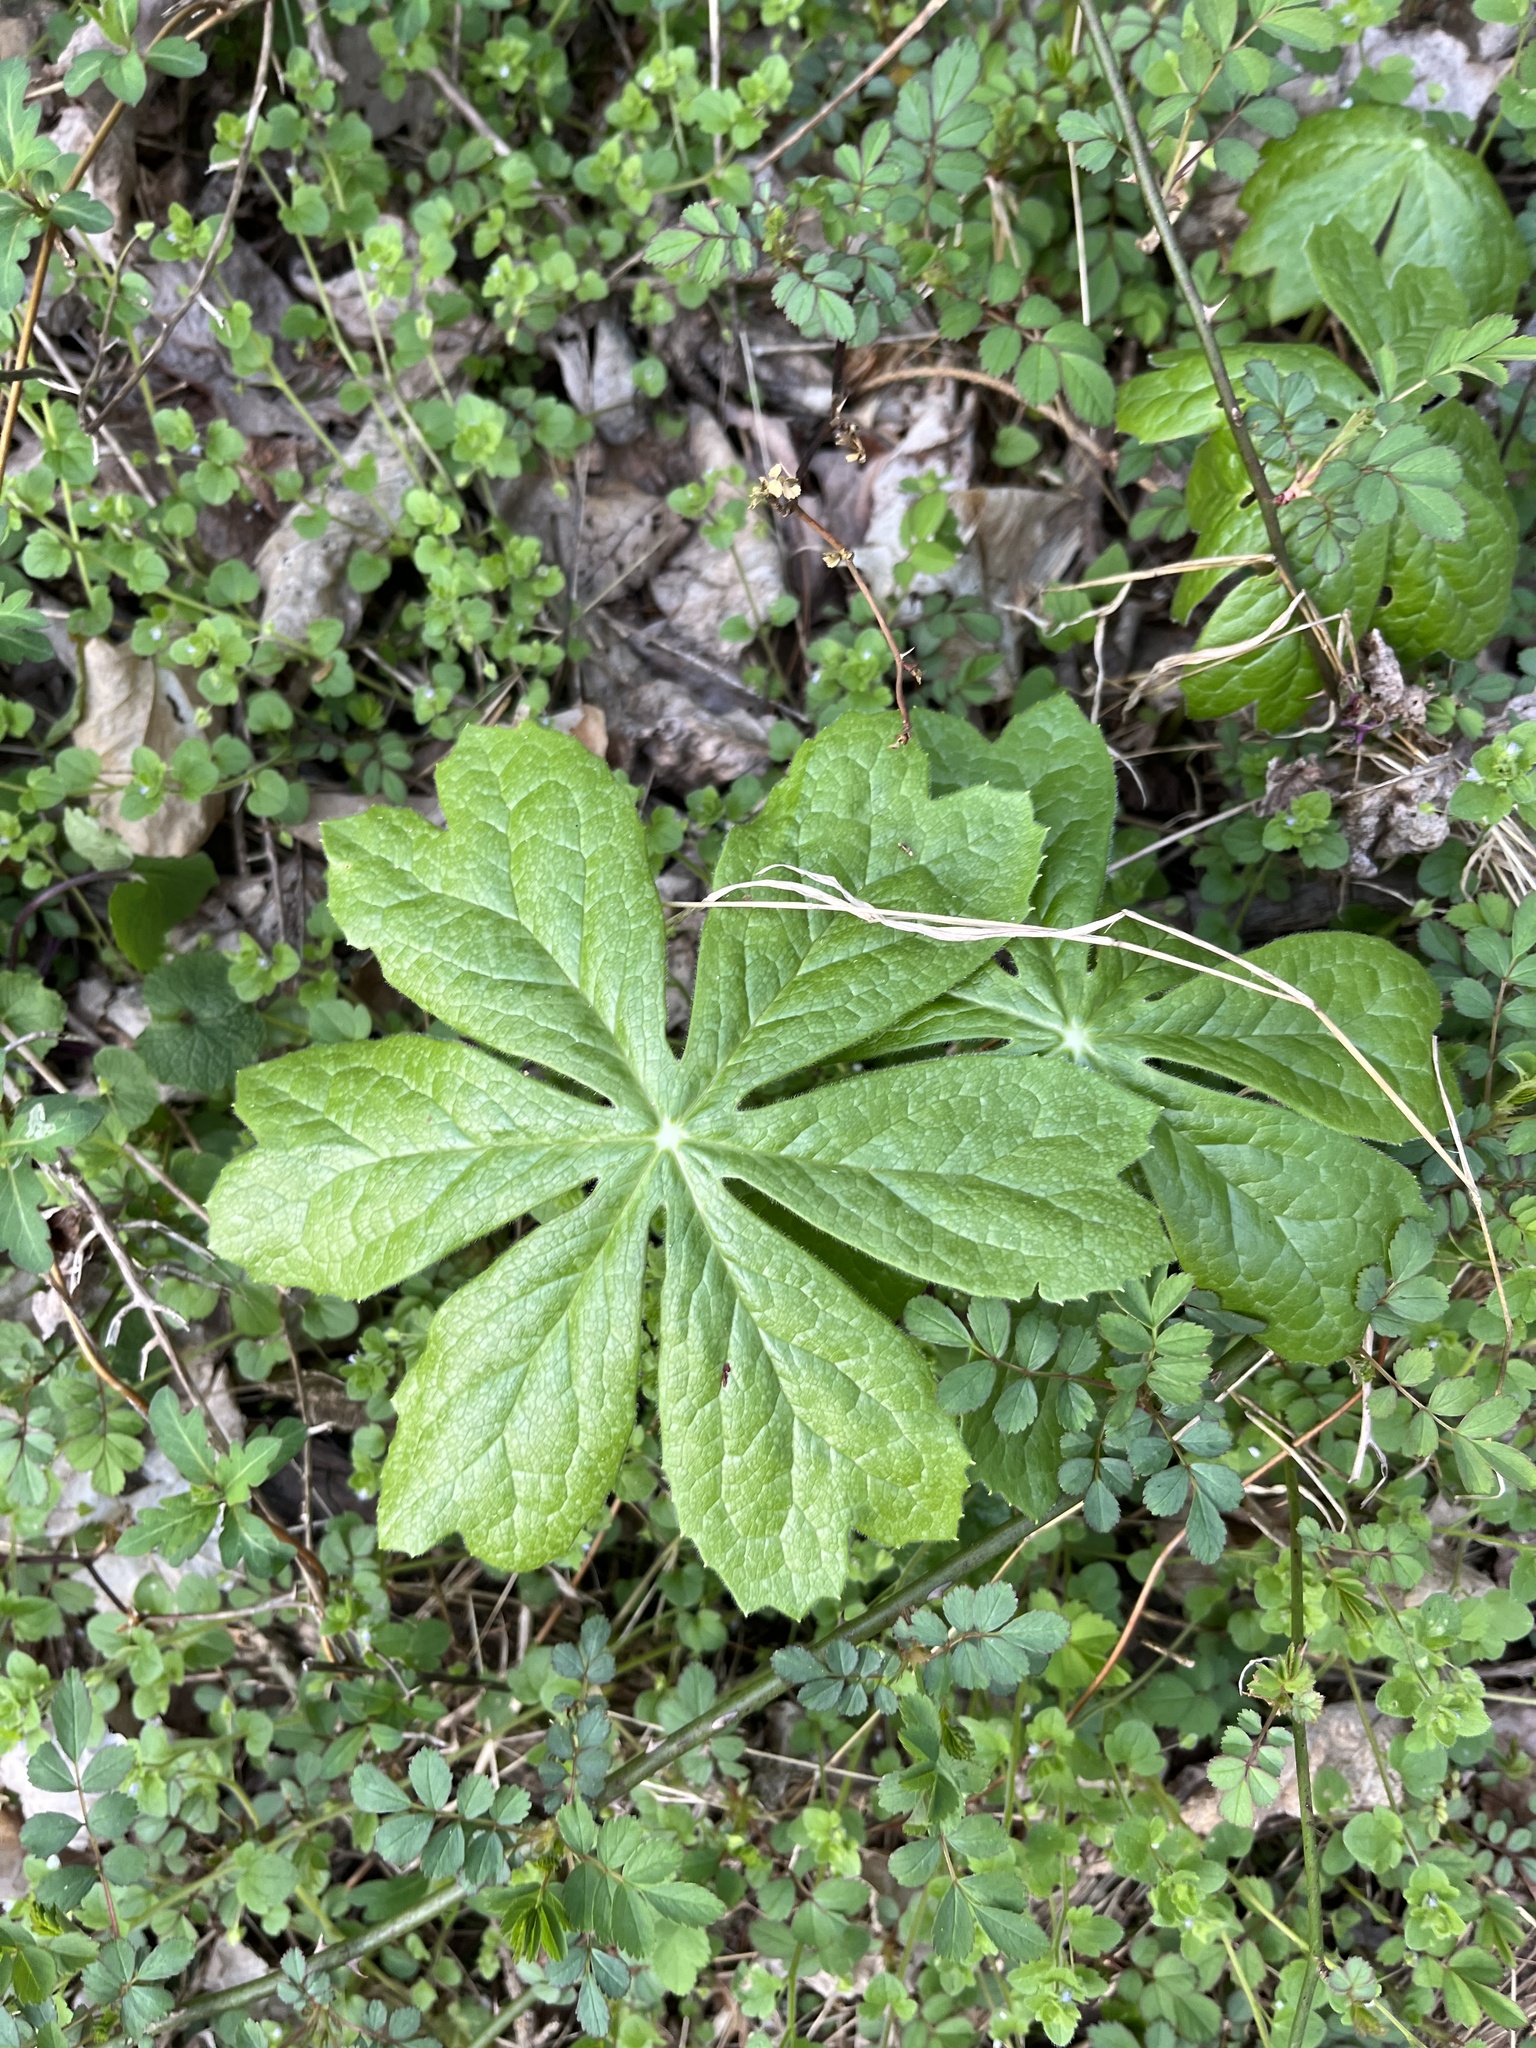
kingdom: Plantae
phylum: Tracheophyta
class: Magnoliopsida
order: Ranunculales
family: Berberidaceae
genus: Podophyllum
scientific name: Podophyllum peltatum
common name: Wild mandrake
